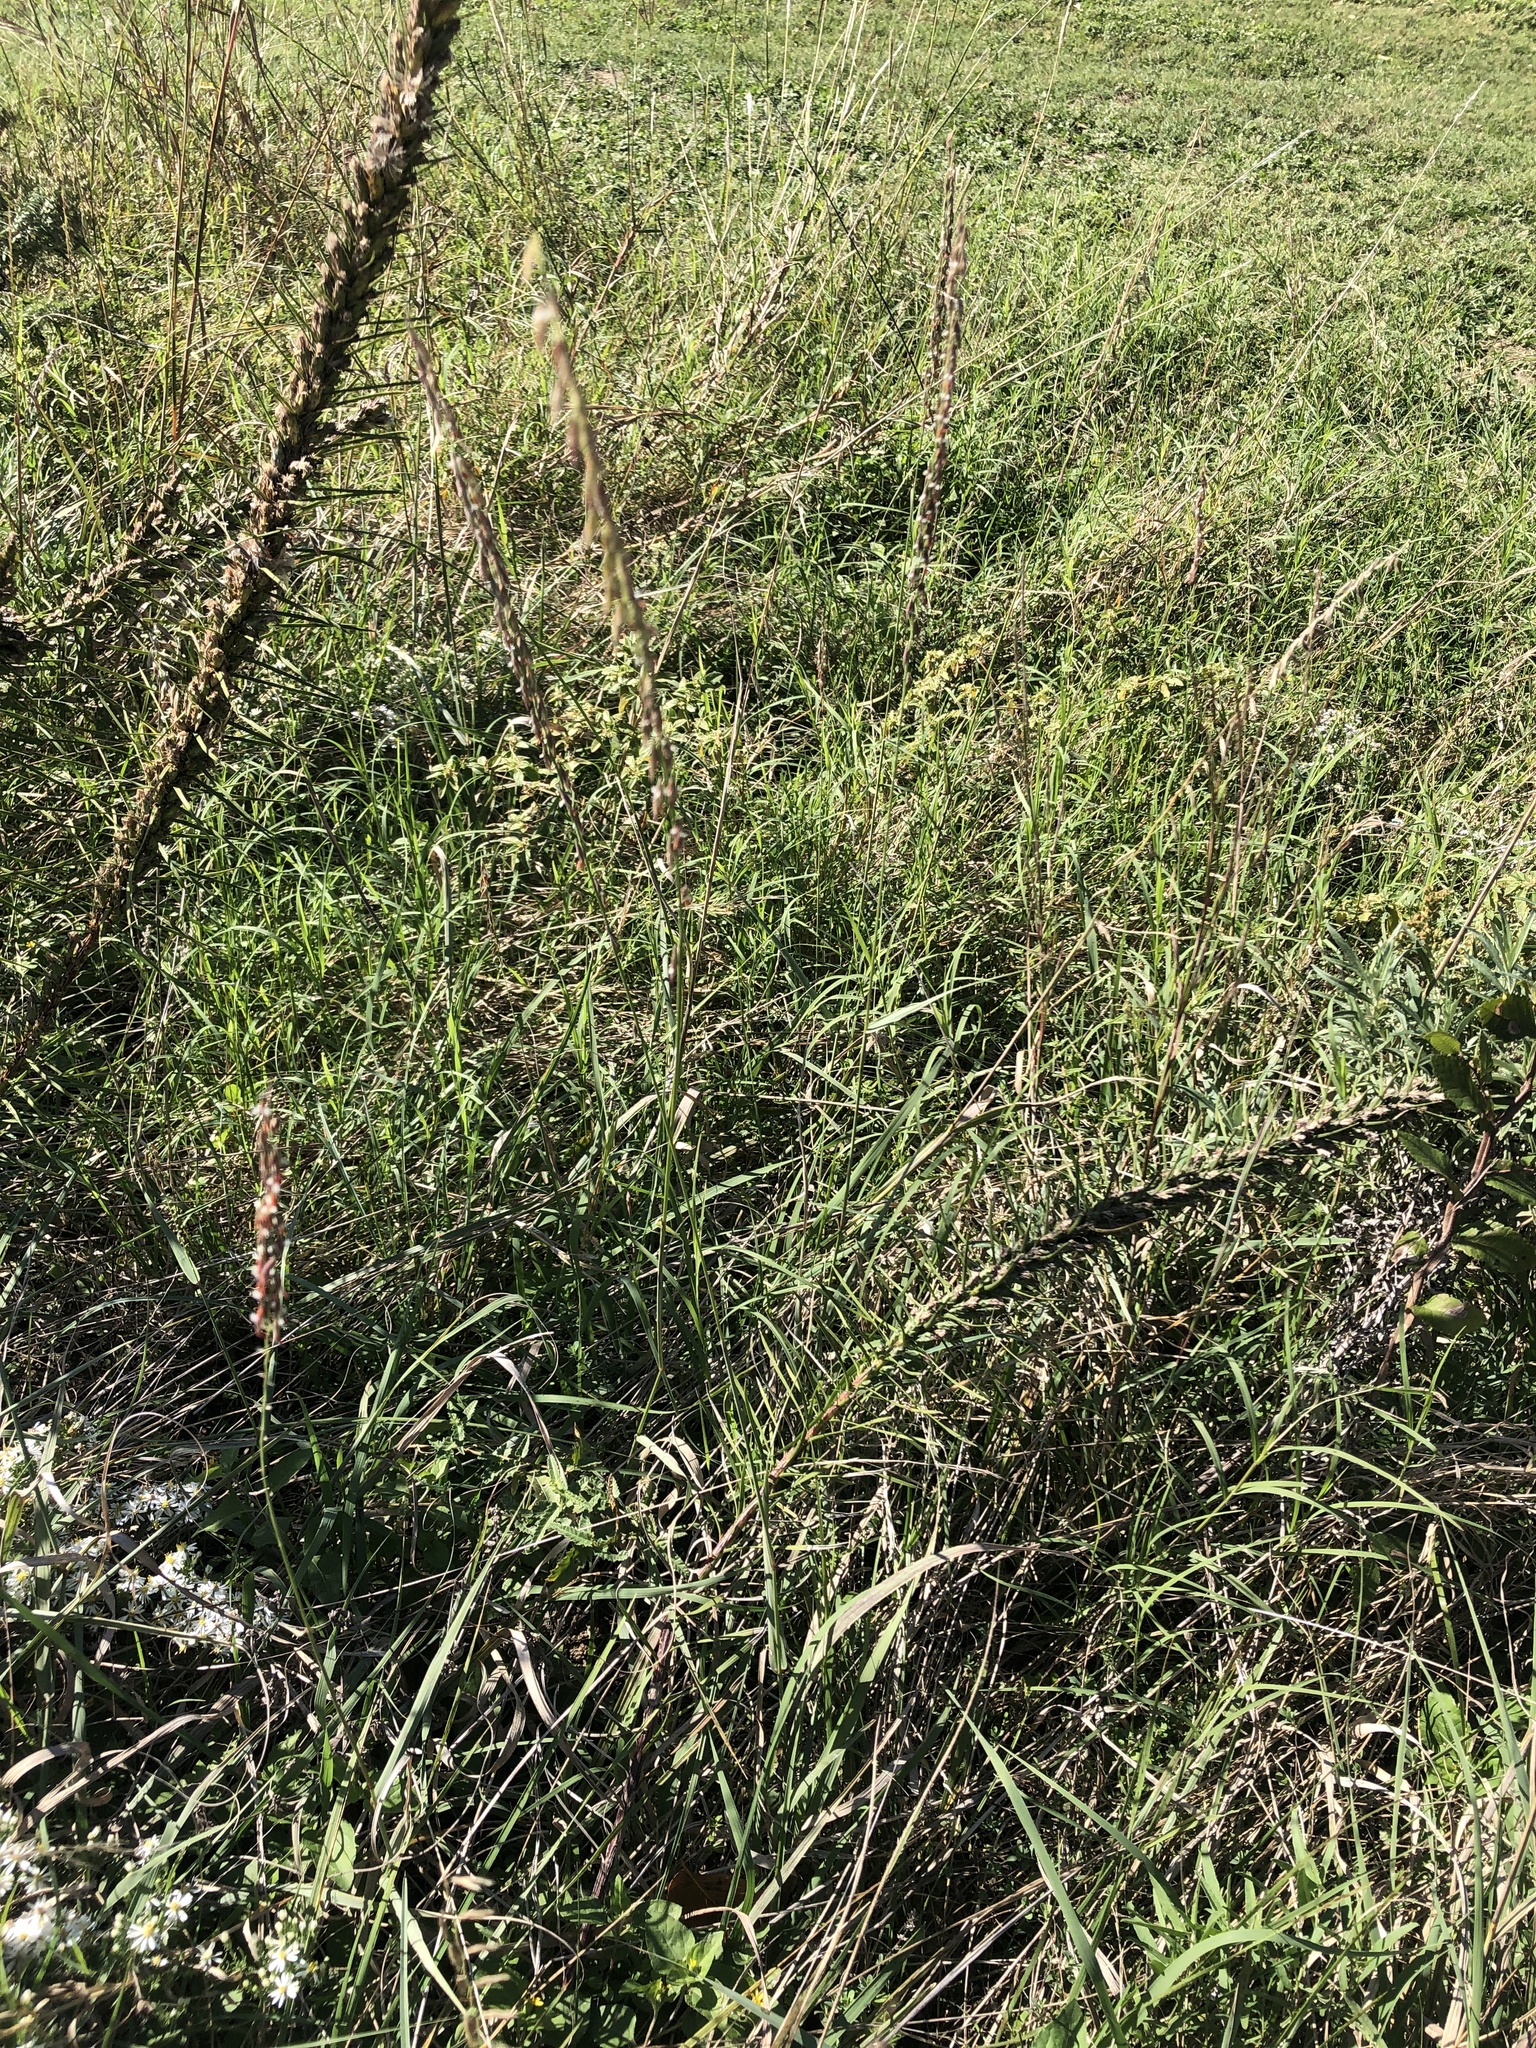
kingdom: Plantae
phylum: Tracheophyta
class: Liliopsida
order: Poales
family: Poaceae
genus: Bouteloua
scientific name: Bouteloua curtipendula
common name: Side-oats grama
